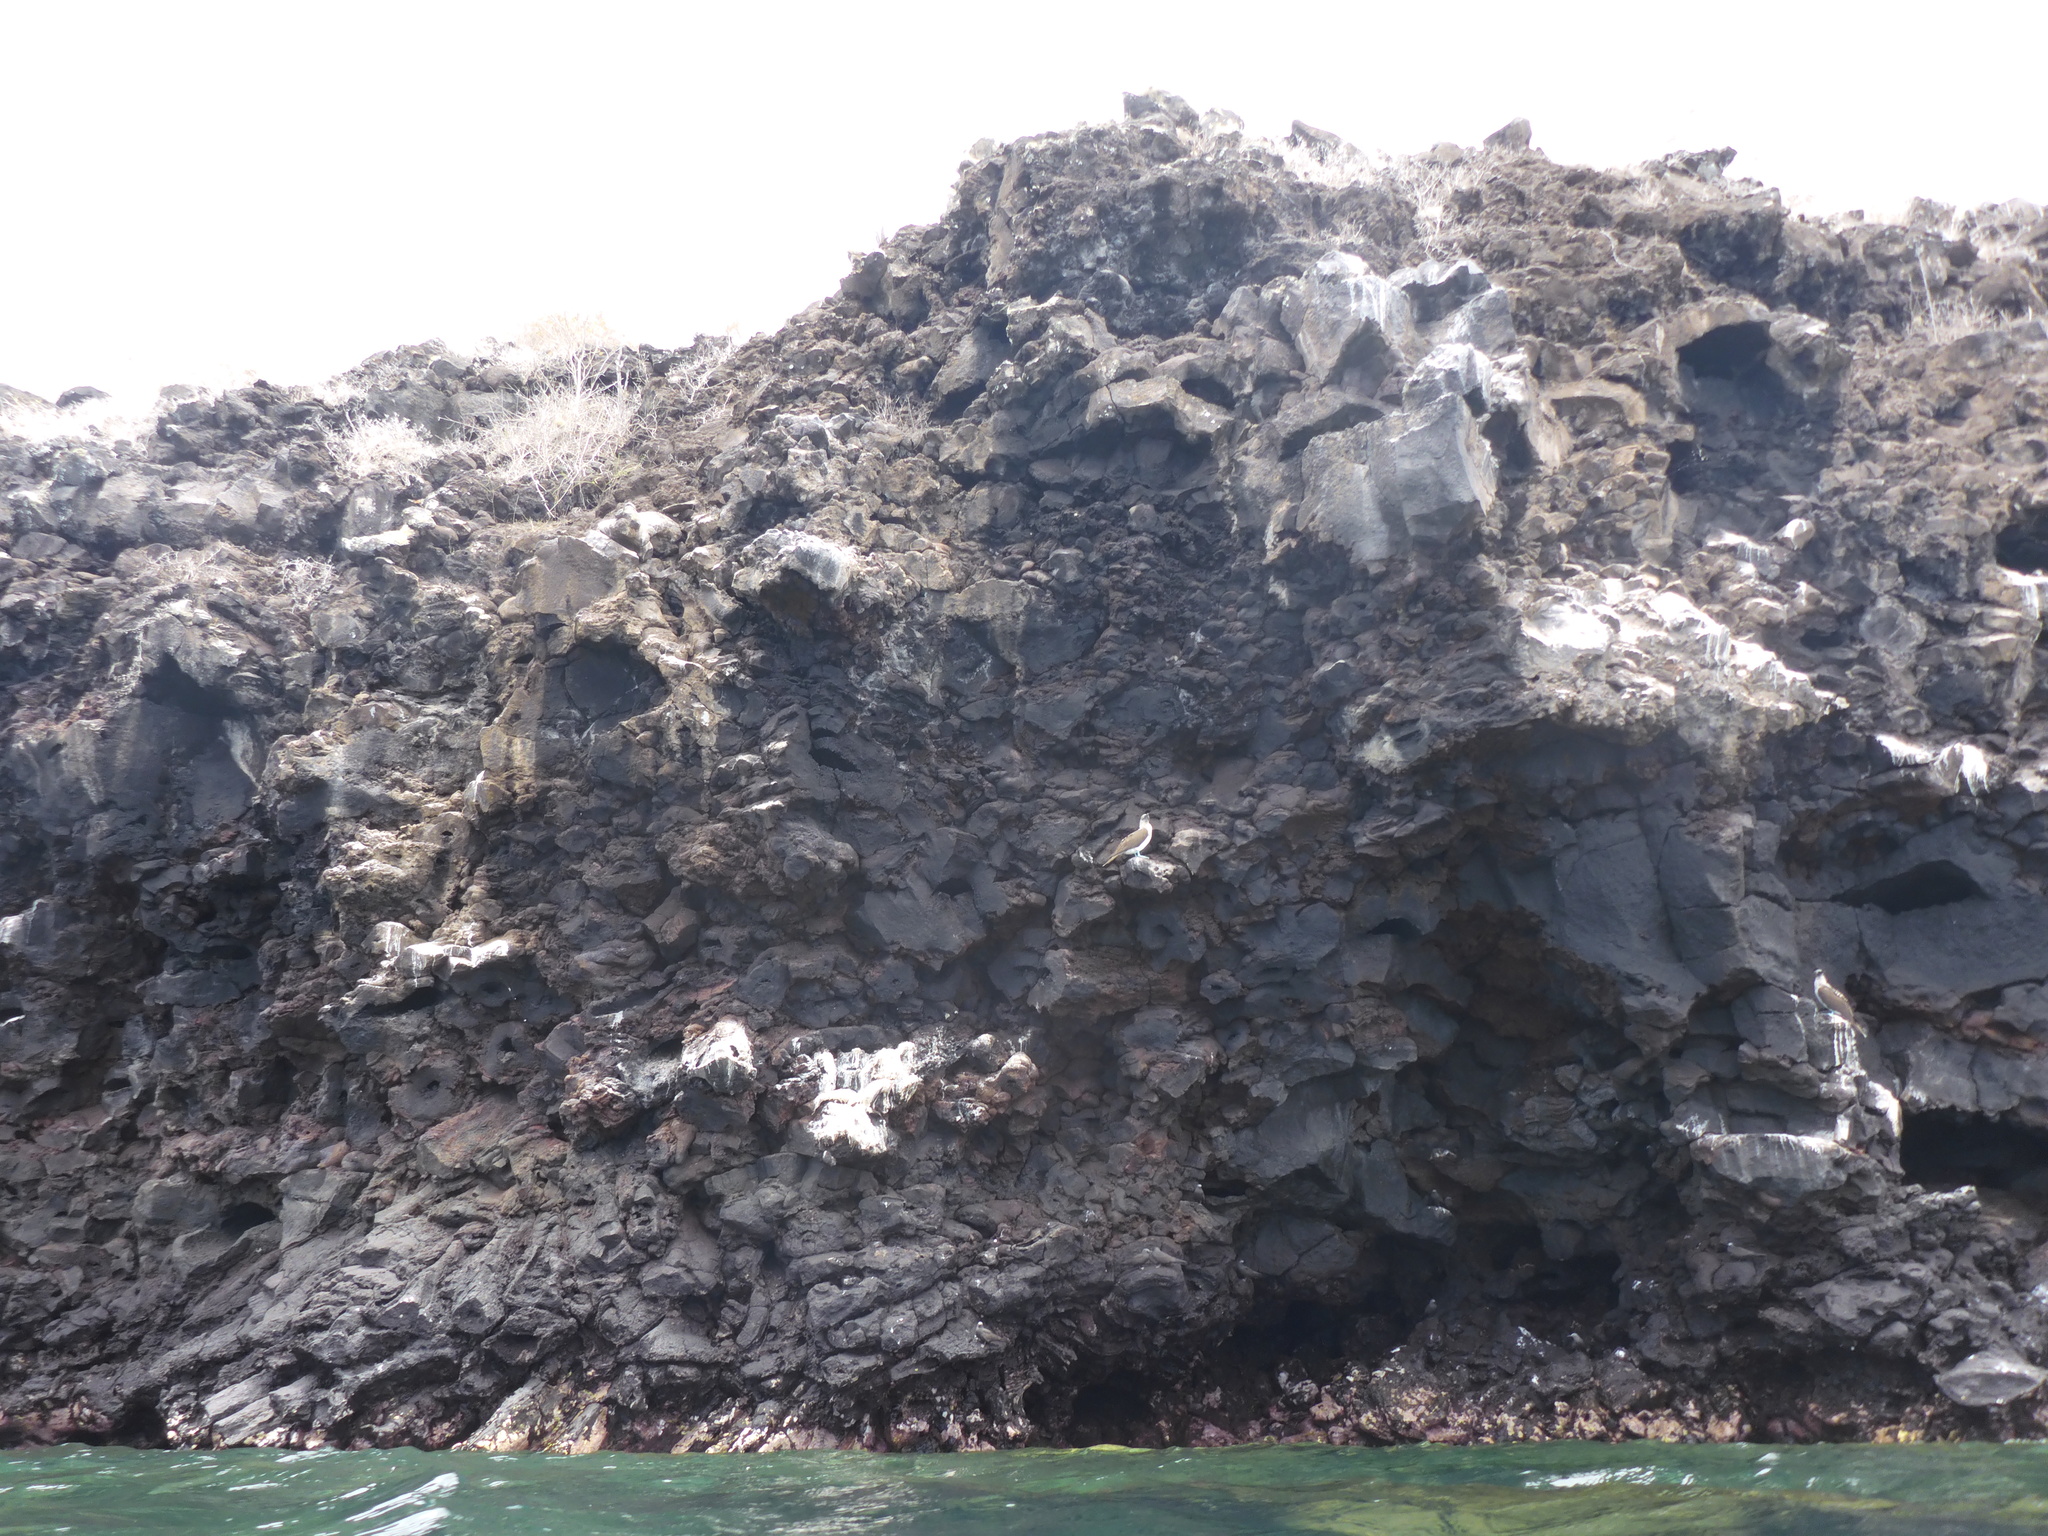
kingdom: Animalia
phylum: Chordata
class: Aves
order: Suliformes
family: Sulidae
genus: Sula
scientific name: Sula nebouxii
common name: Blue-footed booby
